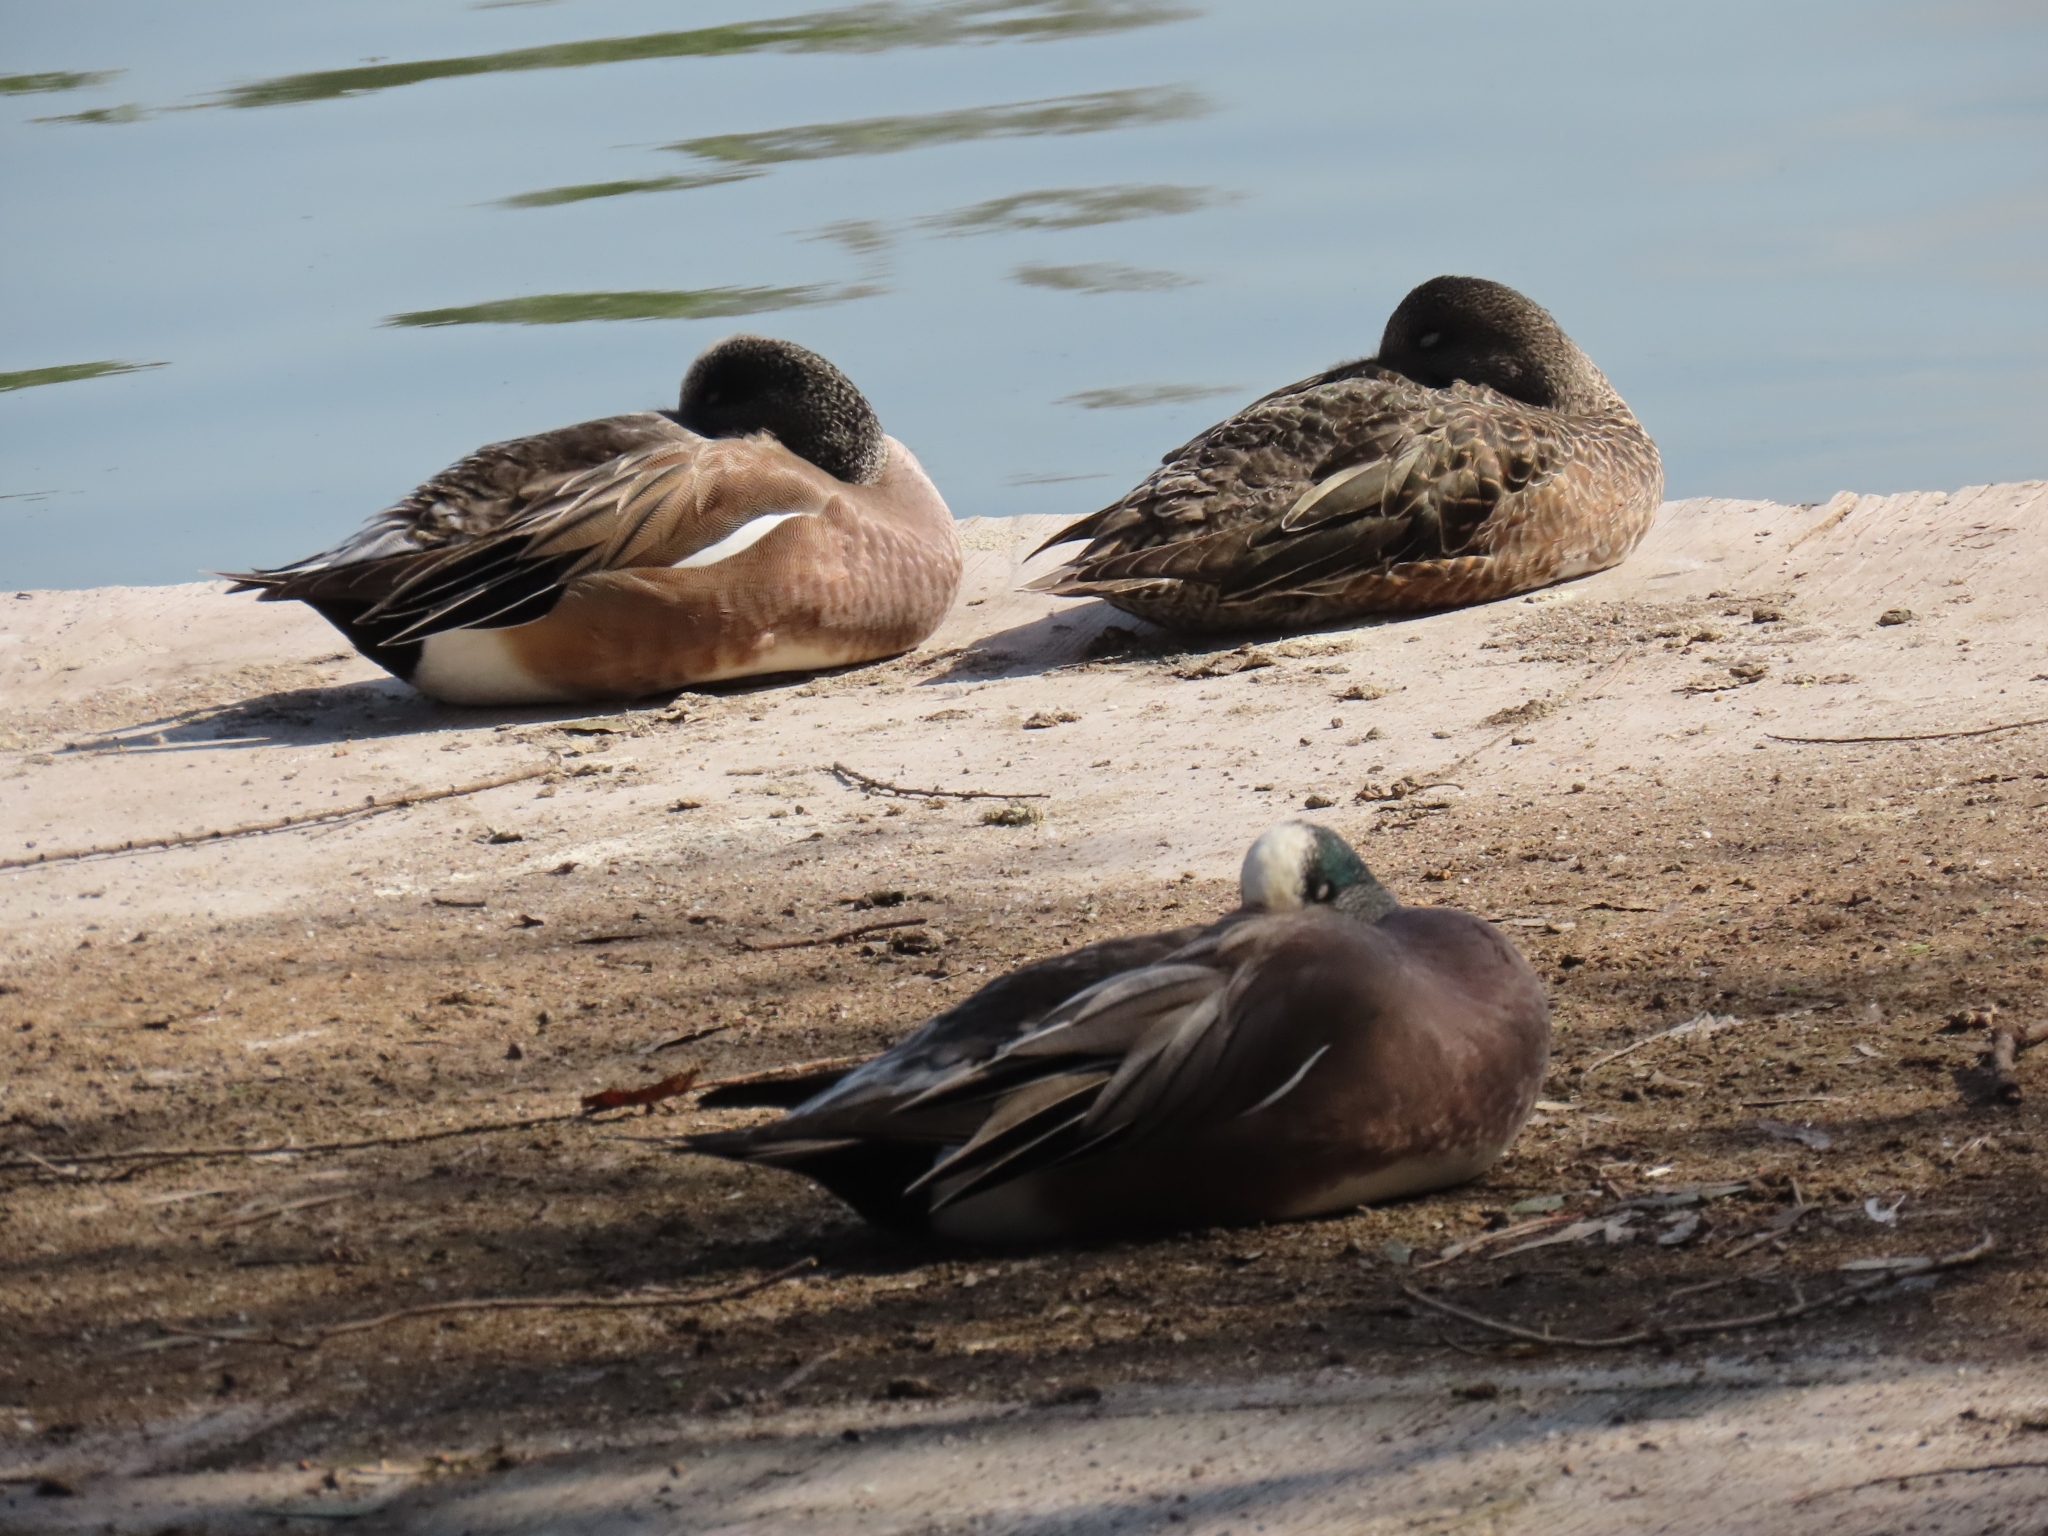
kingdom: Animalia
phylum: Chordata
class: Aves
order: Anseriformes
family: Anatidae
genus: Mareca
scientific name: Mareca americana
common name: American wigeon
